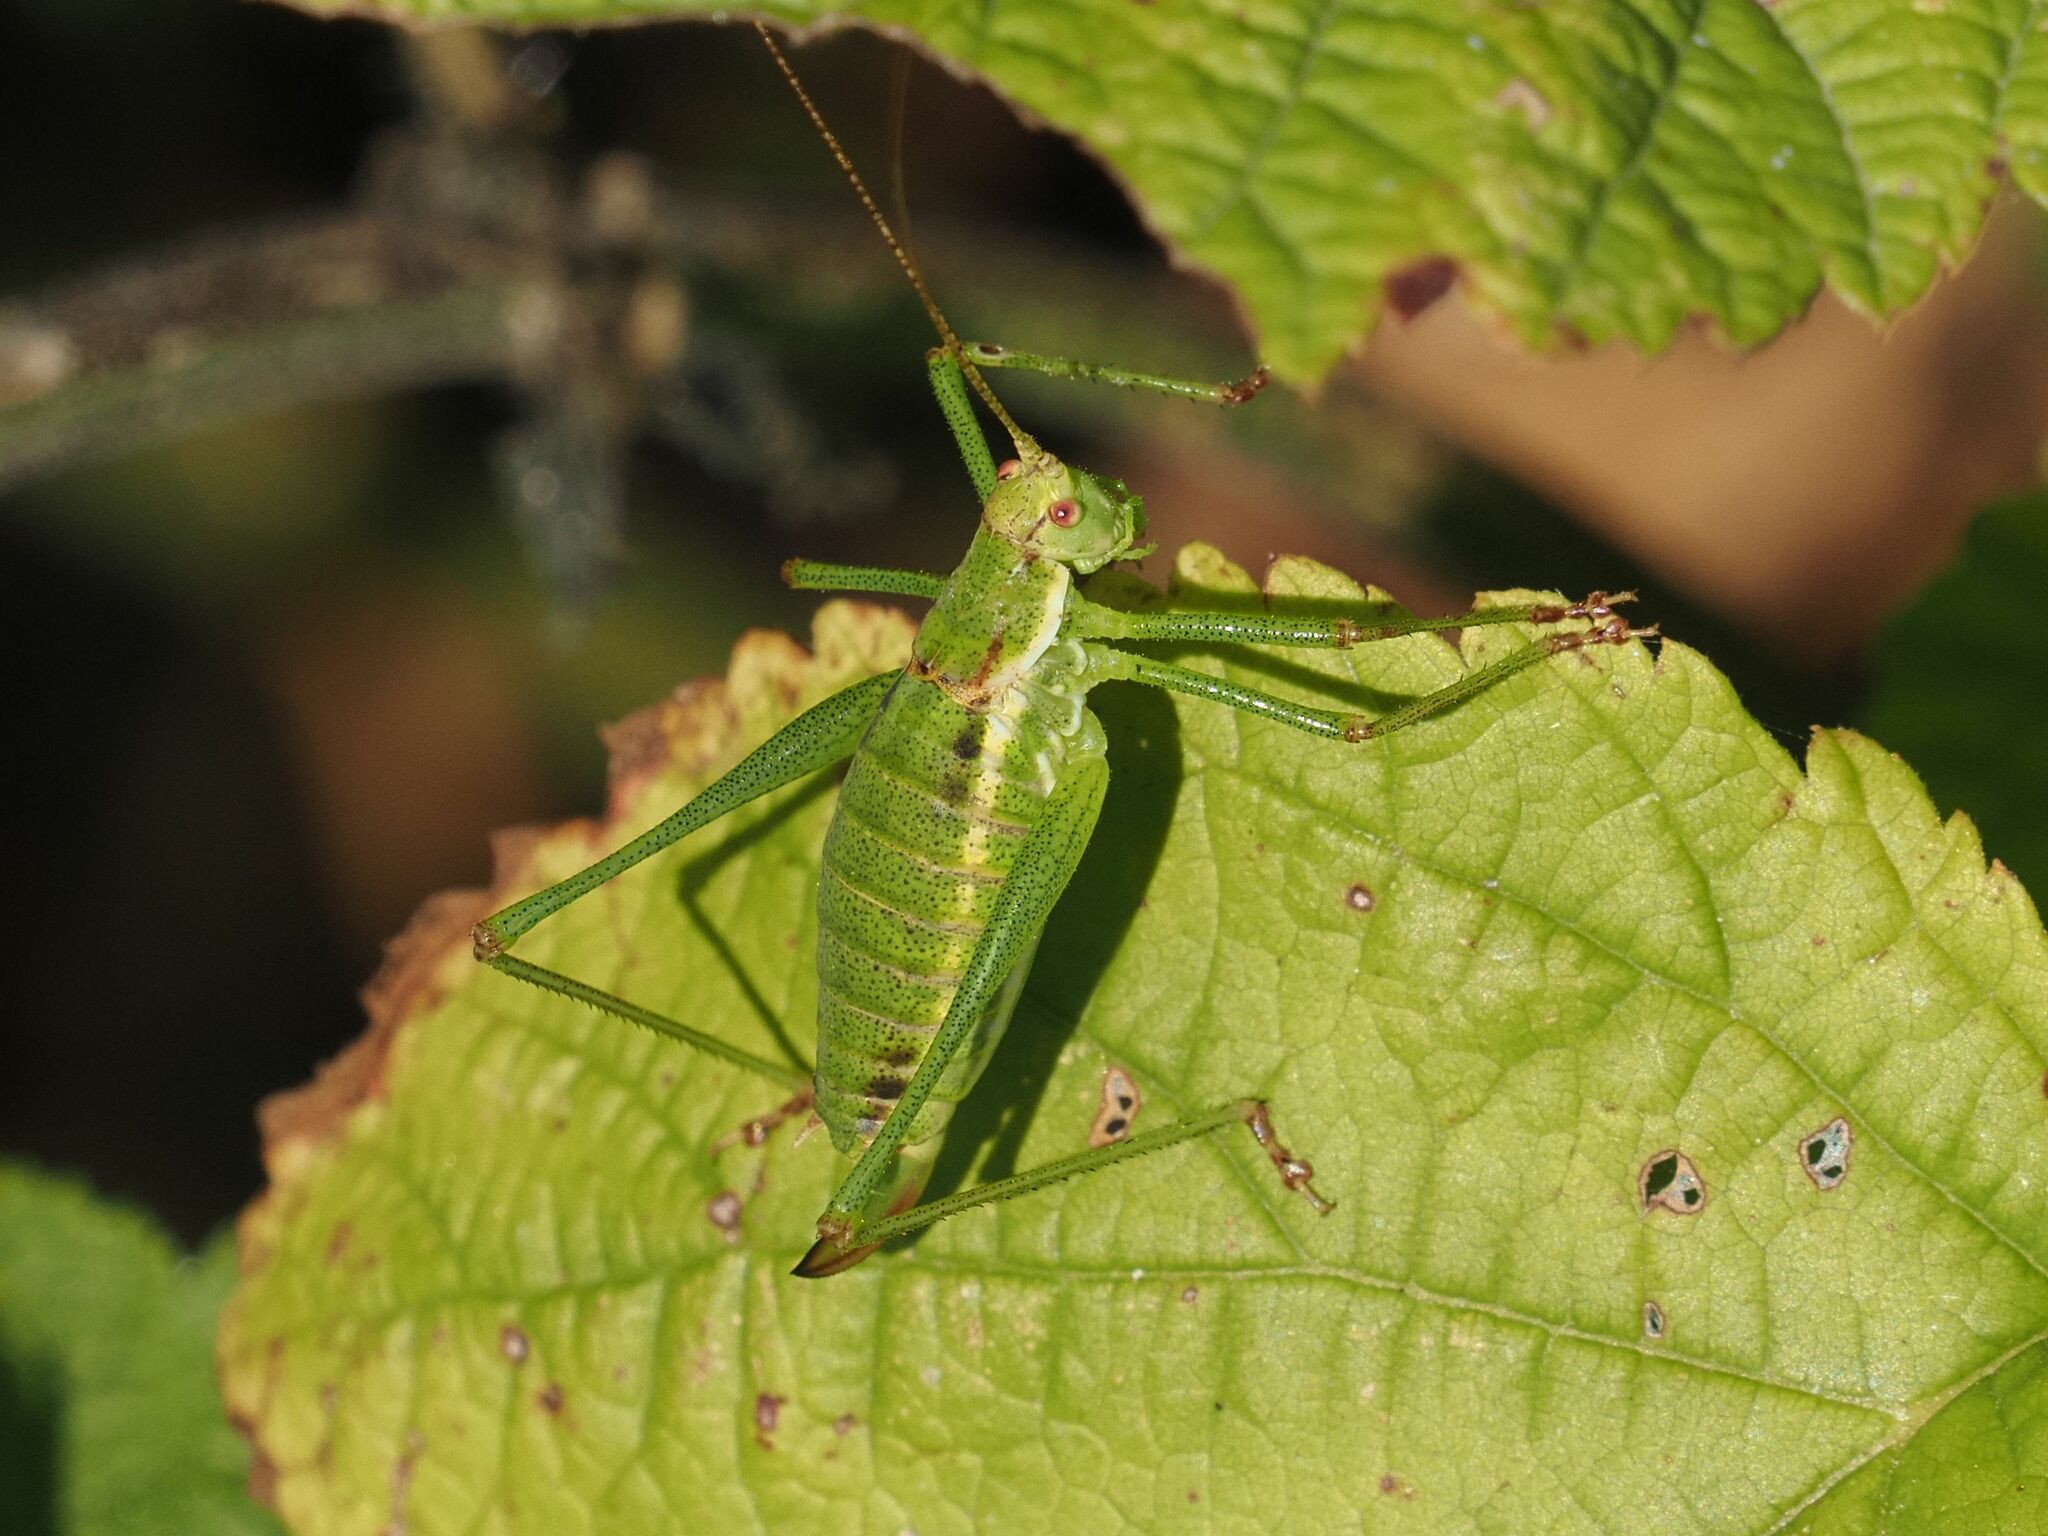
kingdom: Animalia
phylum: Arthropoda
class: Insecta
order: Orthoptera
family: Tettigoniidae
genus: Leptophyes
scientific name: Leptophyes albovittata
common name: Striped bush-cricket
